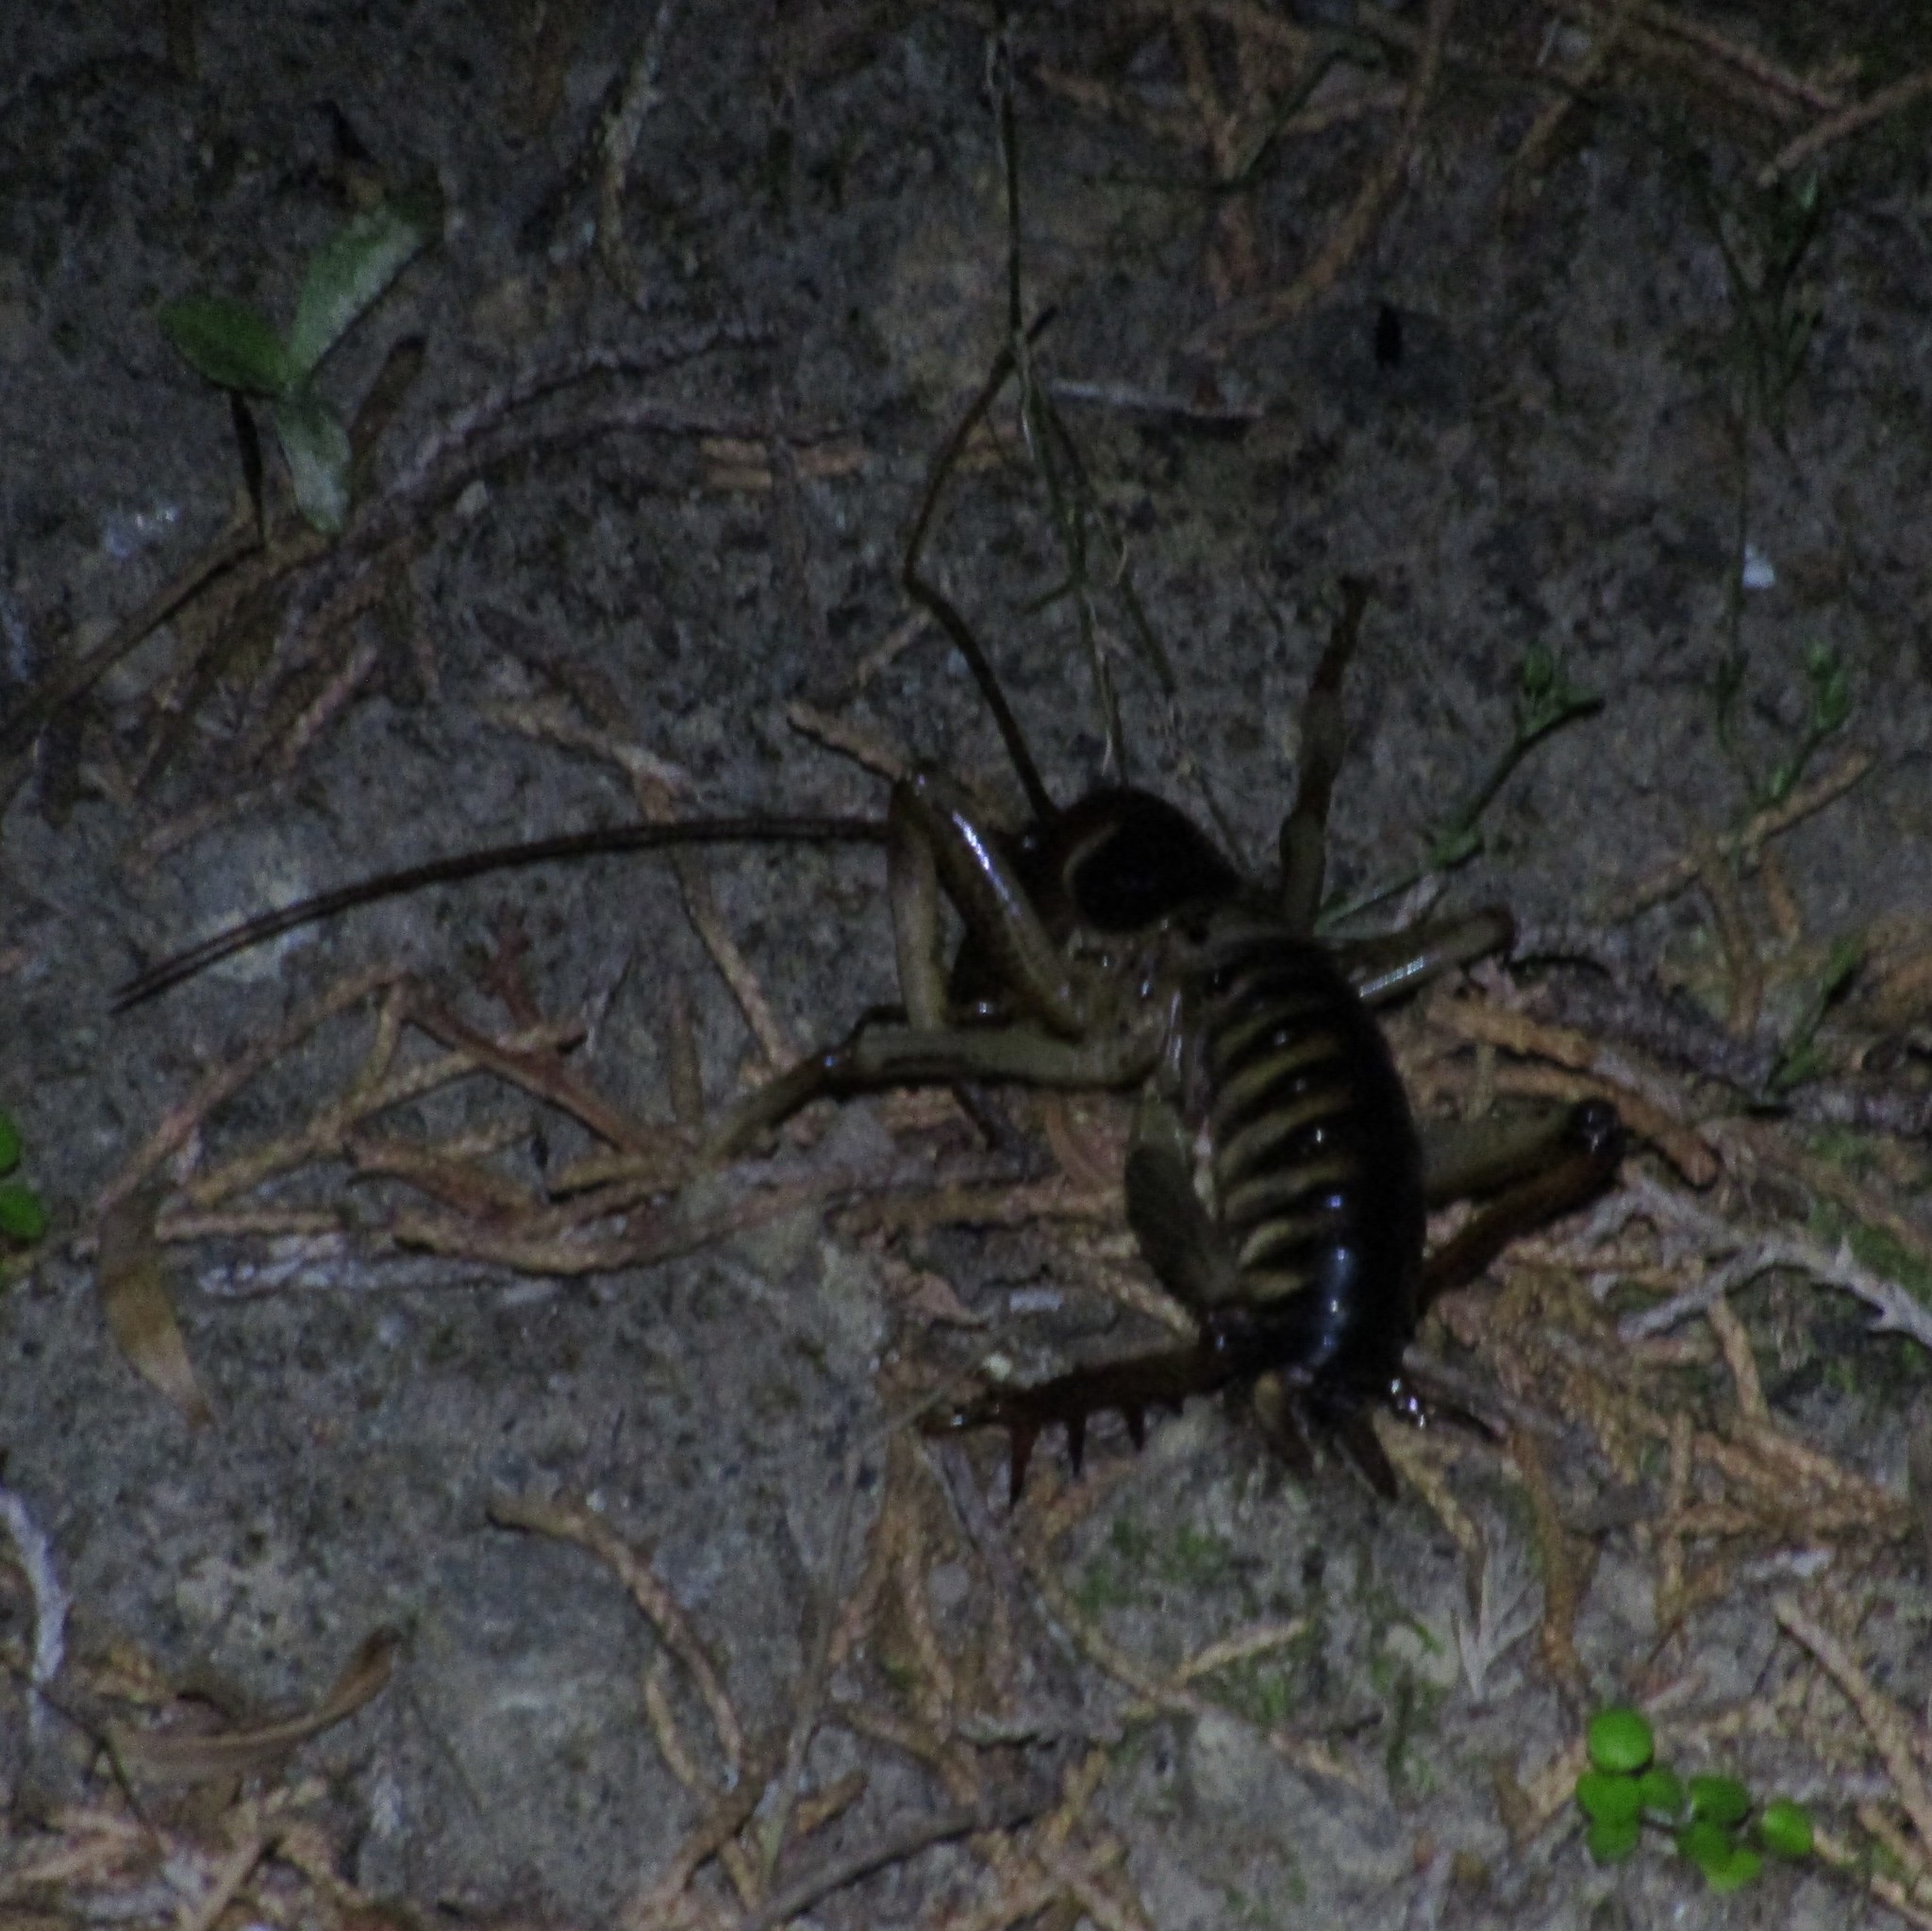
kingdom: Animalia
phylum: Arthropoda
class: Insecta
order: Orthoptera
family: Anostostomatidae
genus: Hemideina
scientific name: Hemideina crassidens
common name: Wellington tree weta
